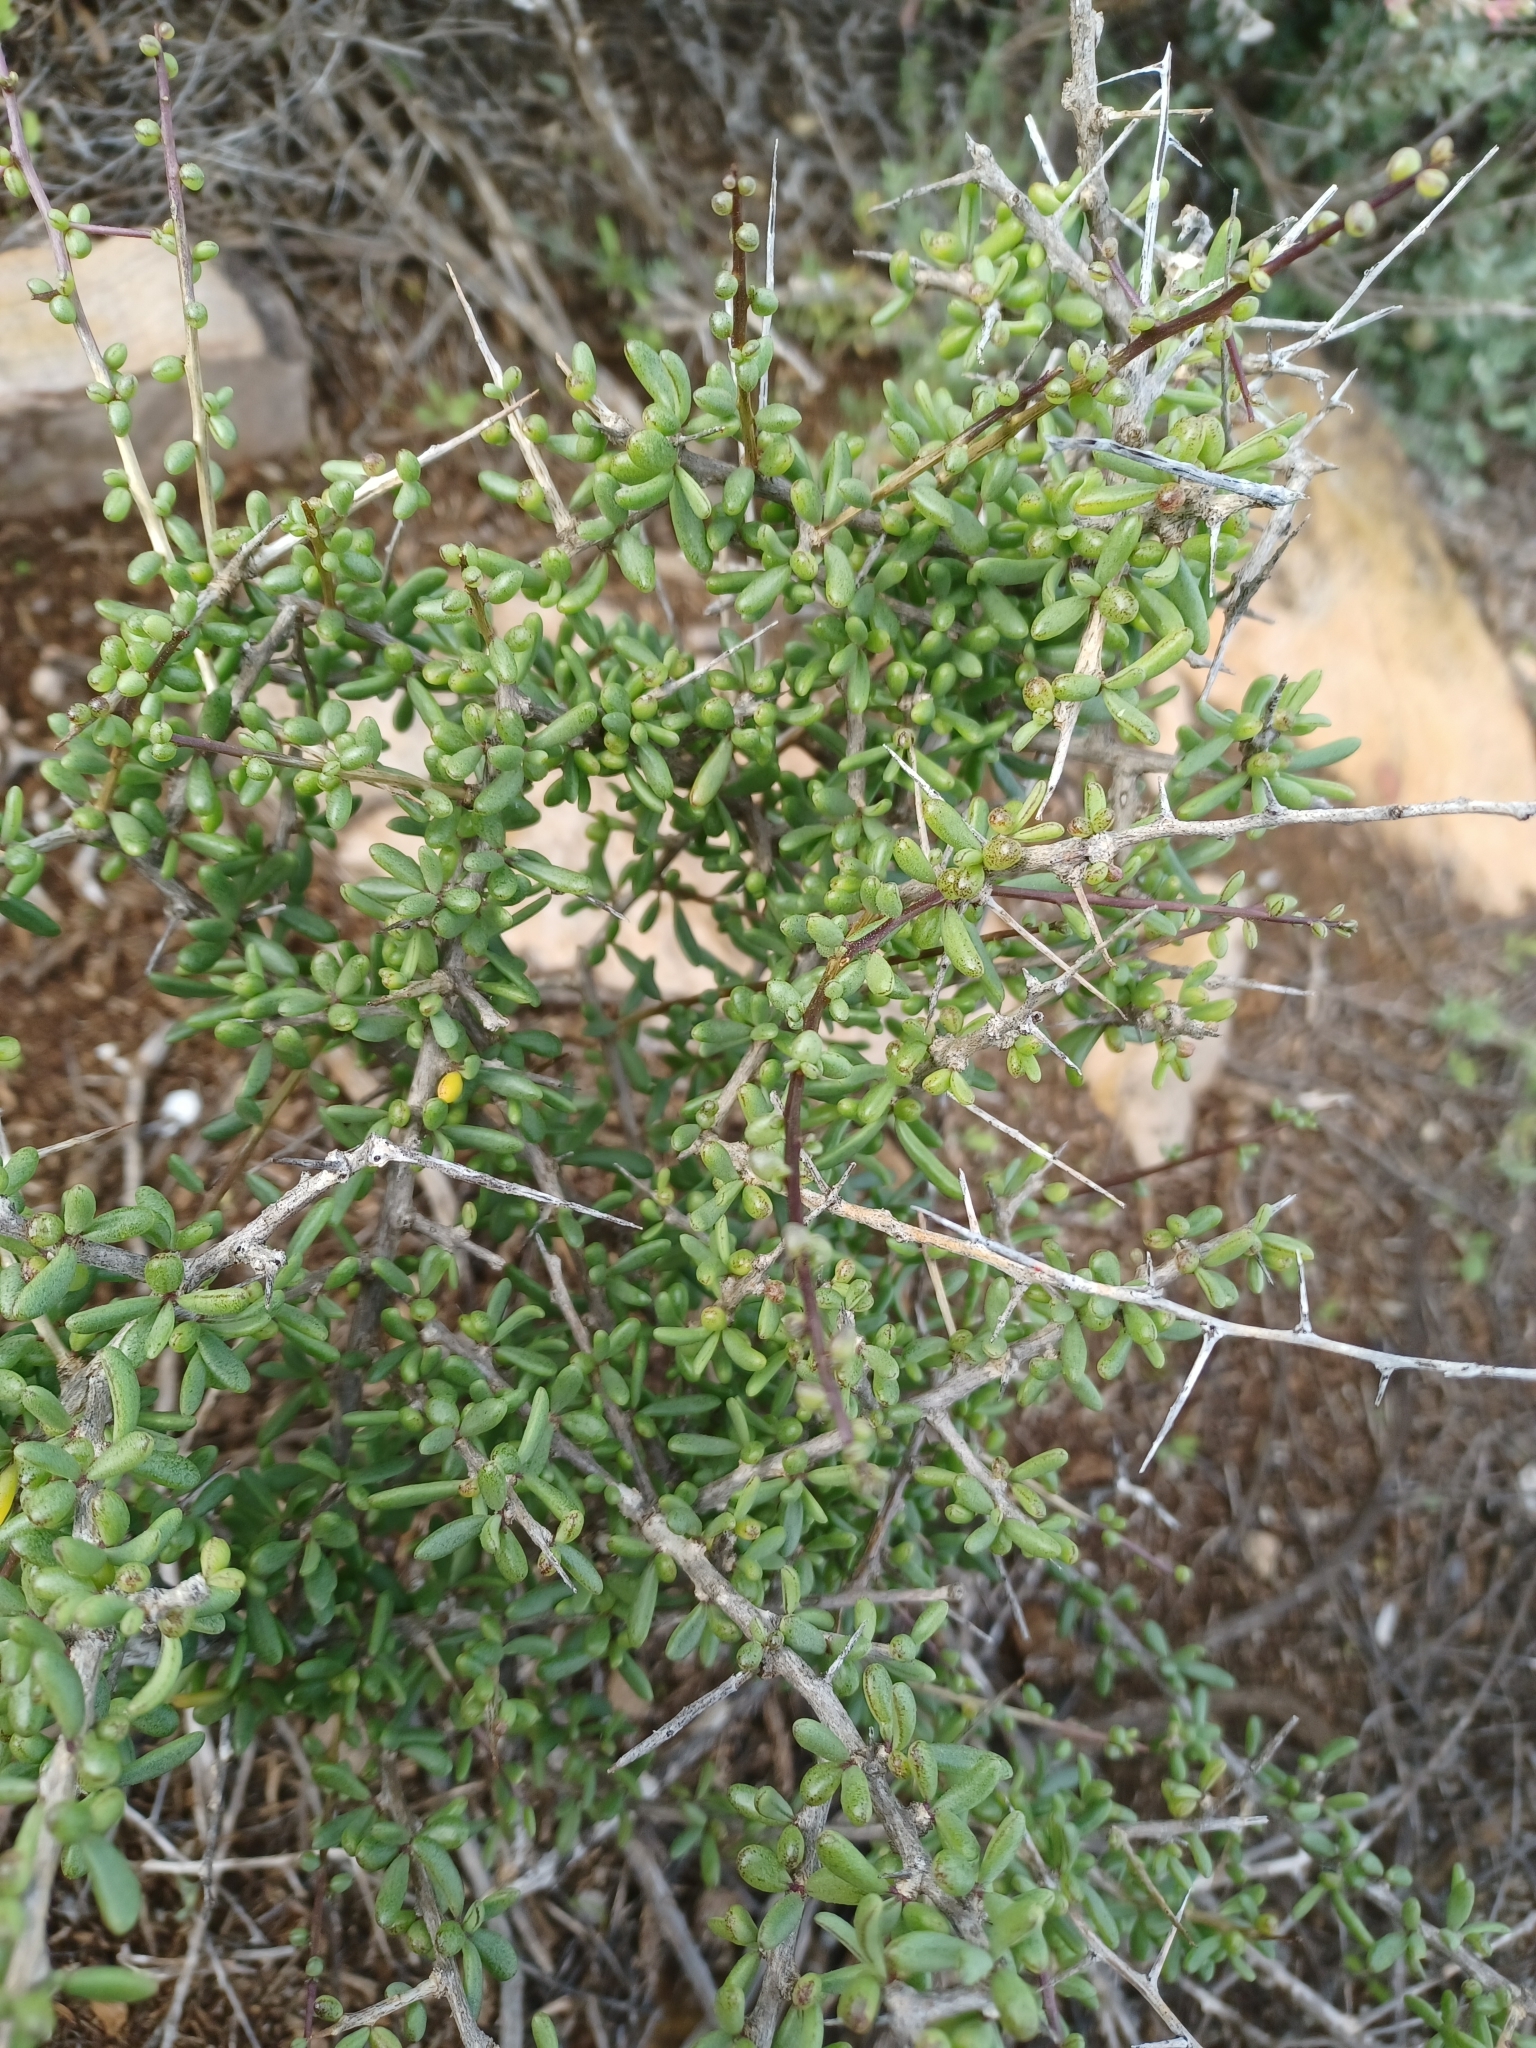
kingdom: Plantae
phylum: Tracheophyta
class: Magnoliopsida
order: Solanales
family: Solanaceae
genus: Lycium
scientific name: Lycium australe
